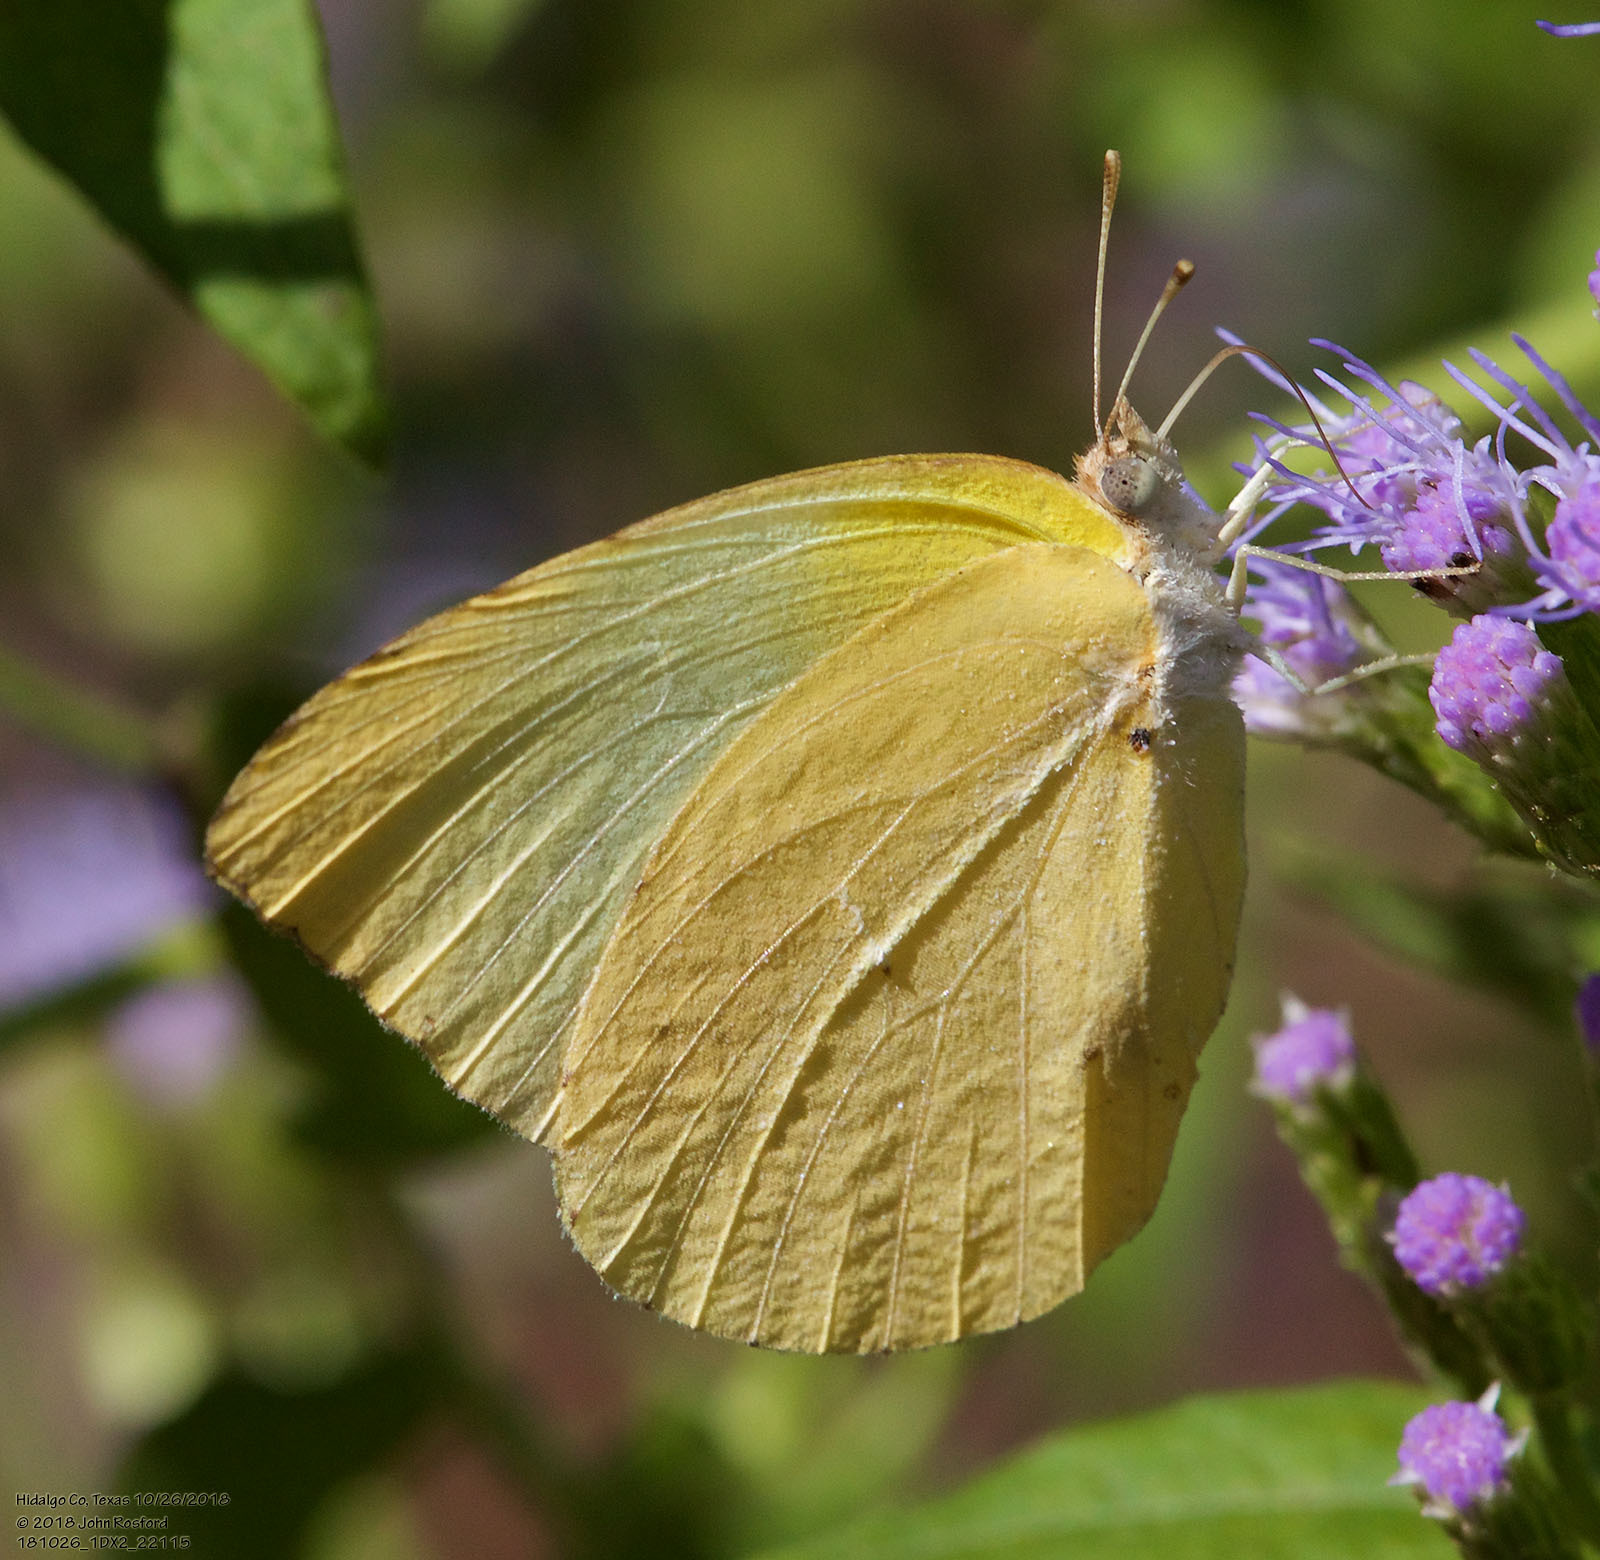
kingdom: Animalia
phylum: Arthropoda
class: Insecta
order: Lepidoptera
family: Pieridae
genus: Kricogonia
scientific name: Kricogonia lyside
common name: Guayacan sulphur,
